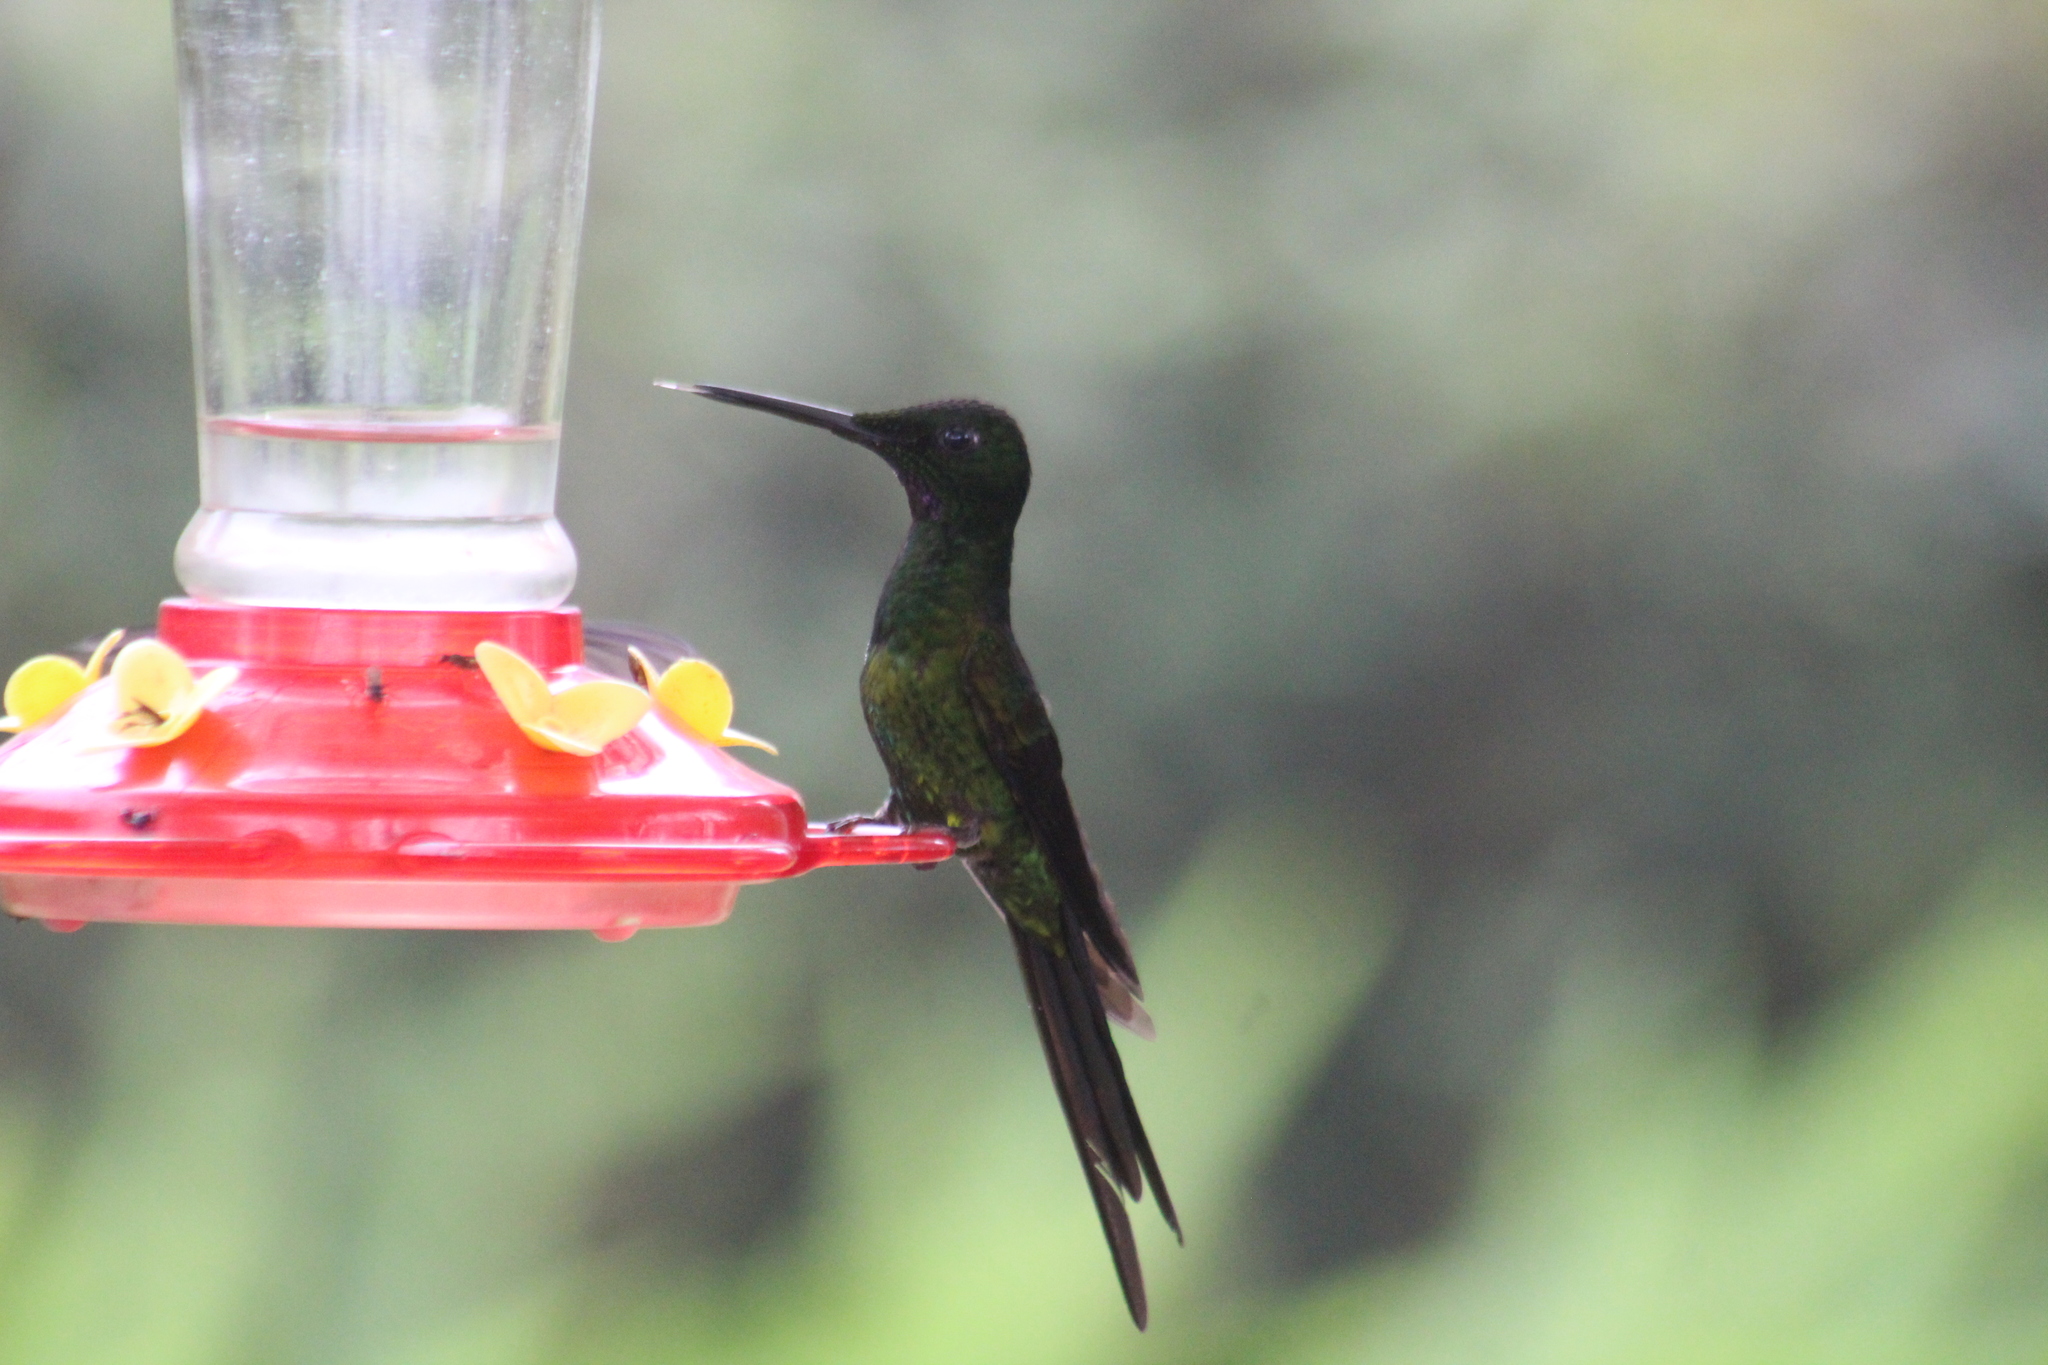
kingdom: Animalia
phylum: Chordata
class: Aves
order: Apodiformes
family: Trochilidae
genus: Heliodoxa
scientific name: Heliodoxa imperatrix
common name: Empress brilliant
